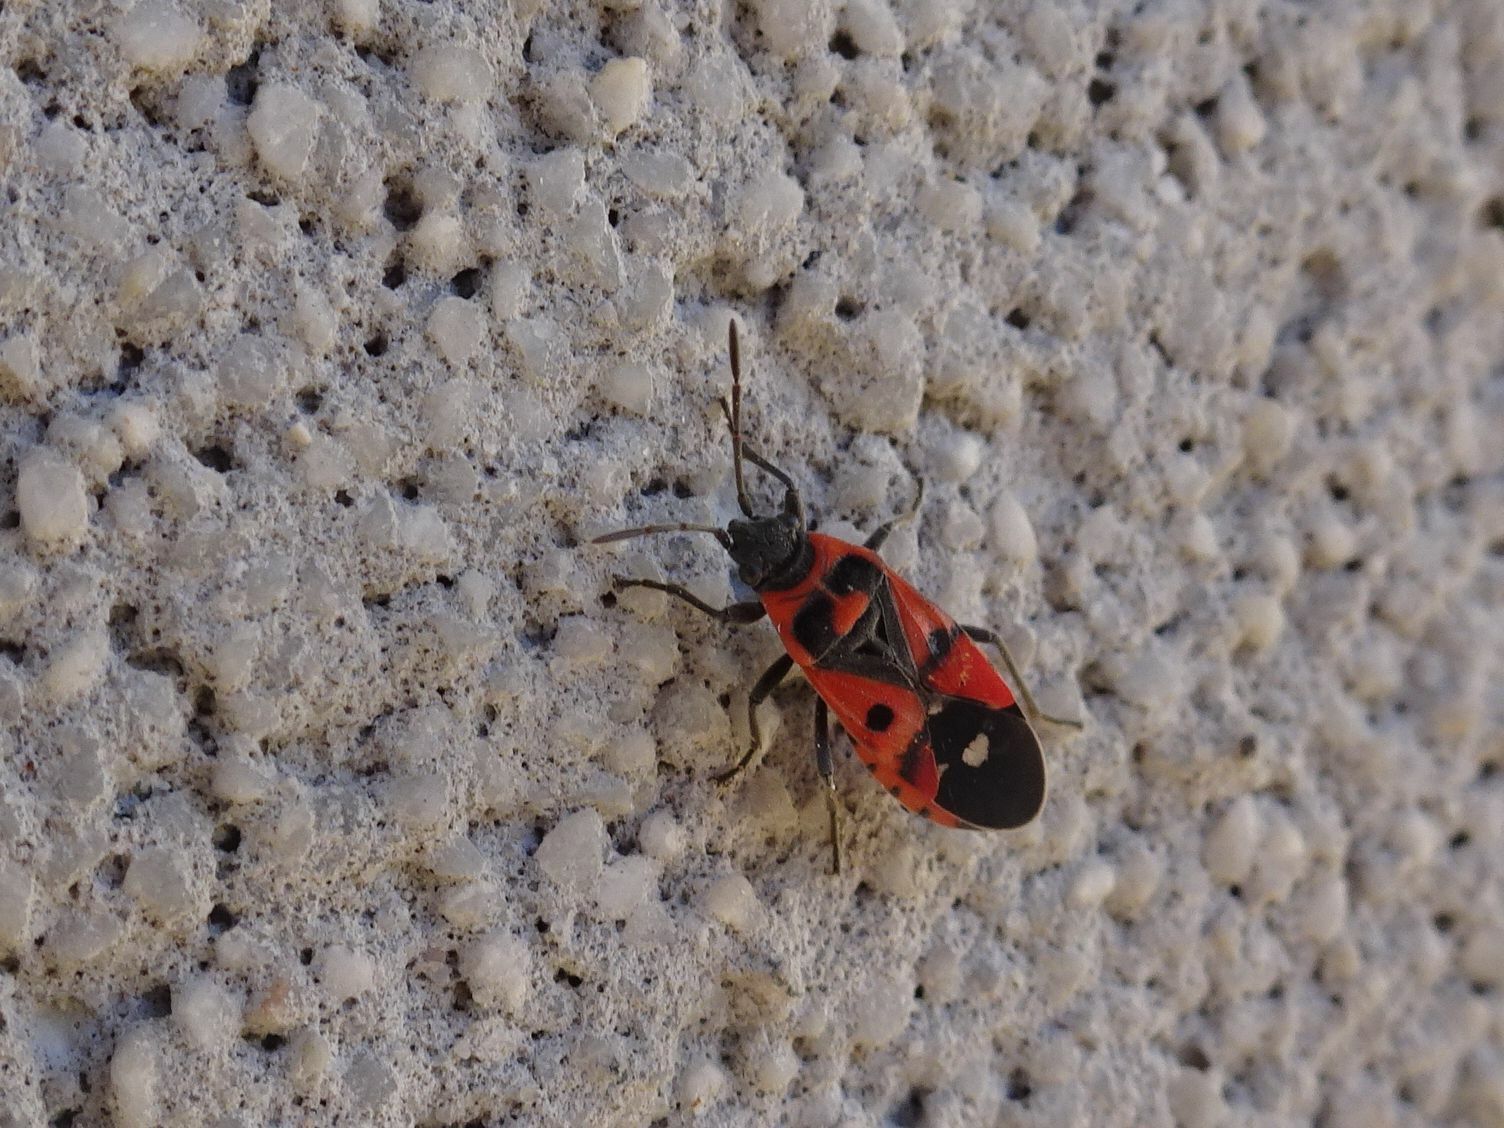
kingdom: Animalia
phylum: Arthropoda
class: Insecta
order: Hemiptera
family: Lygaeidae
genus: Melanocoryphus
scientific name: Melanocoryphus albomaculatus
